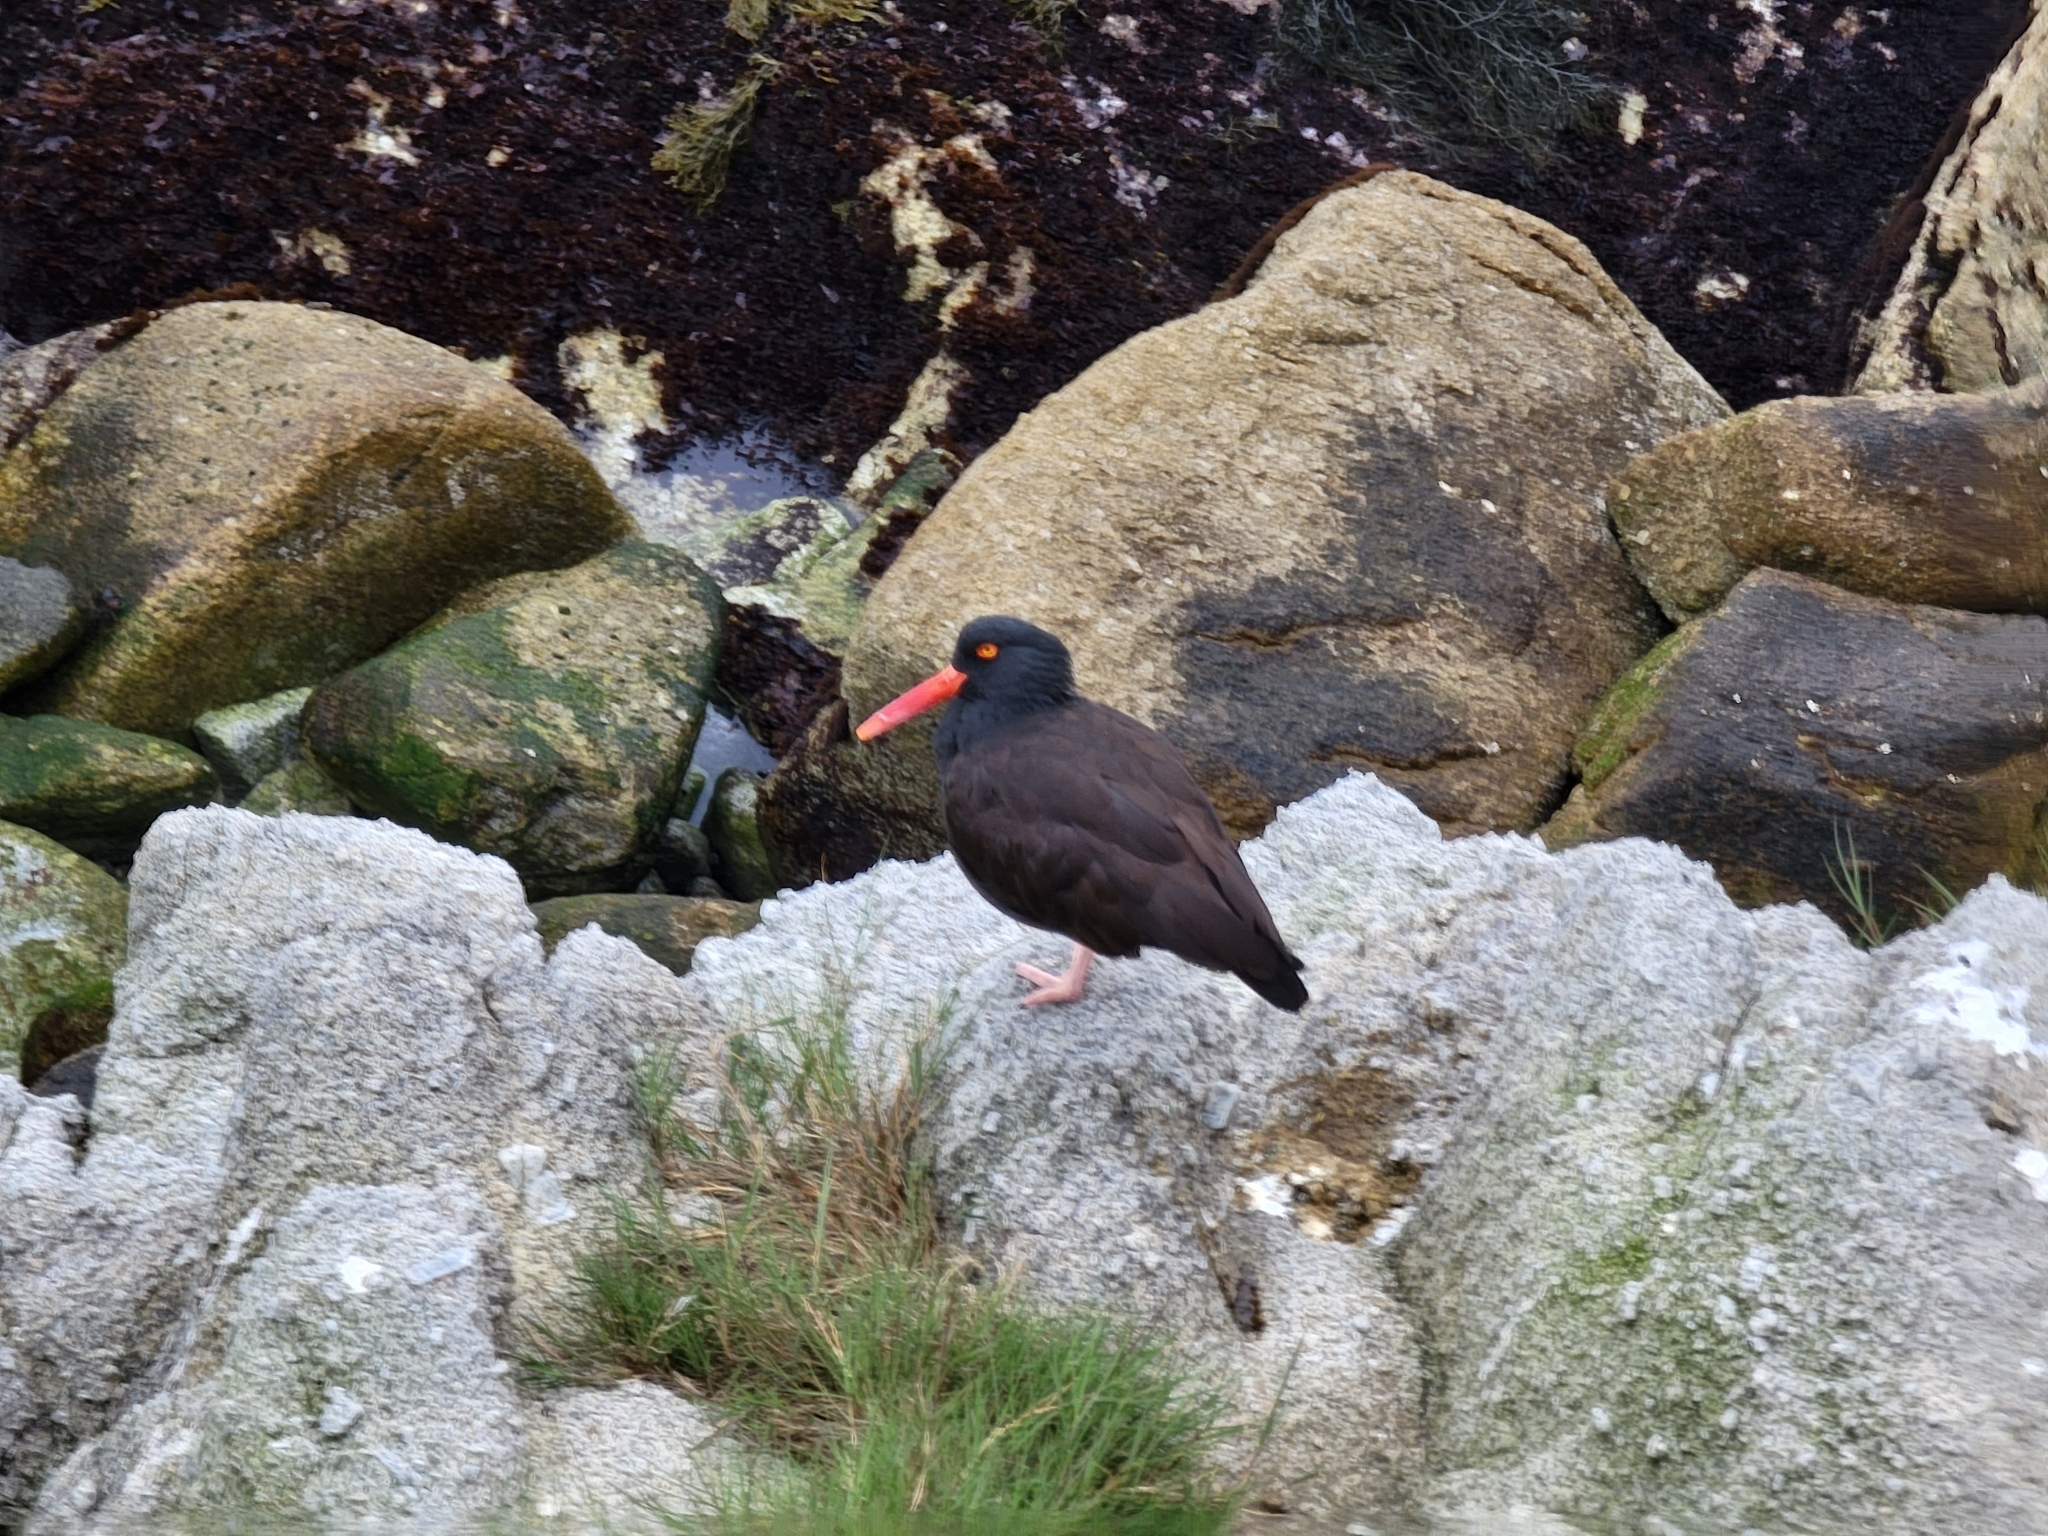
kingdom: Animalia
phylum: Chordata
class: Aves
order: Charadriiformes
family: Haematopodidae
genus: Haematopus
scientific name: Haematopus bachmani
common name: Black oystercatcher
